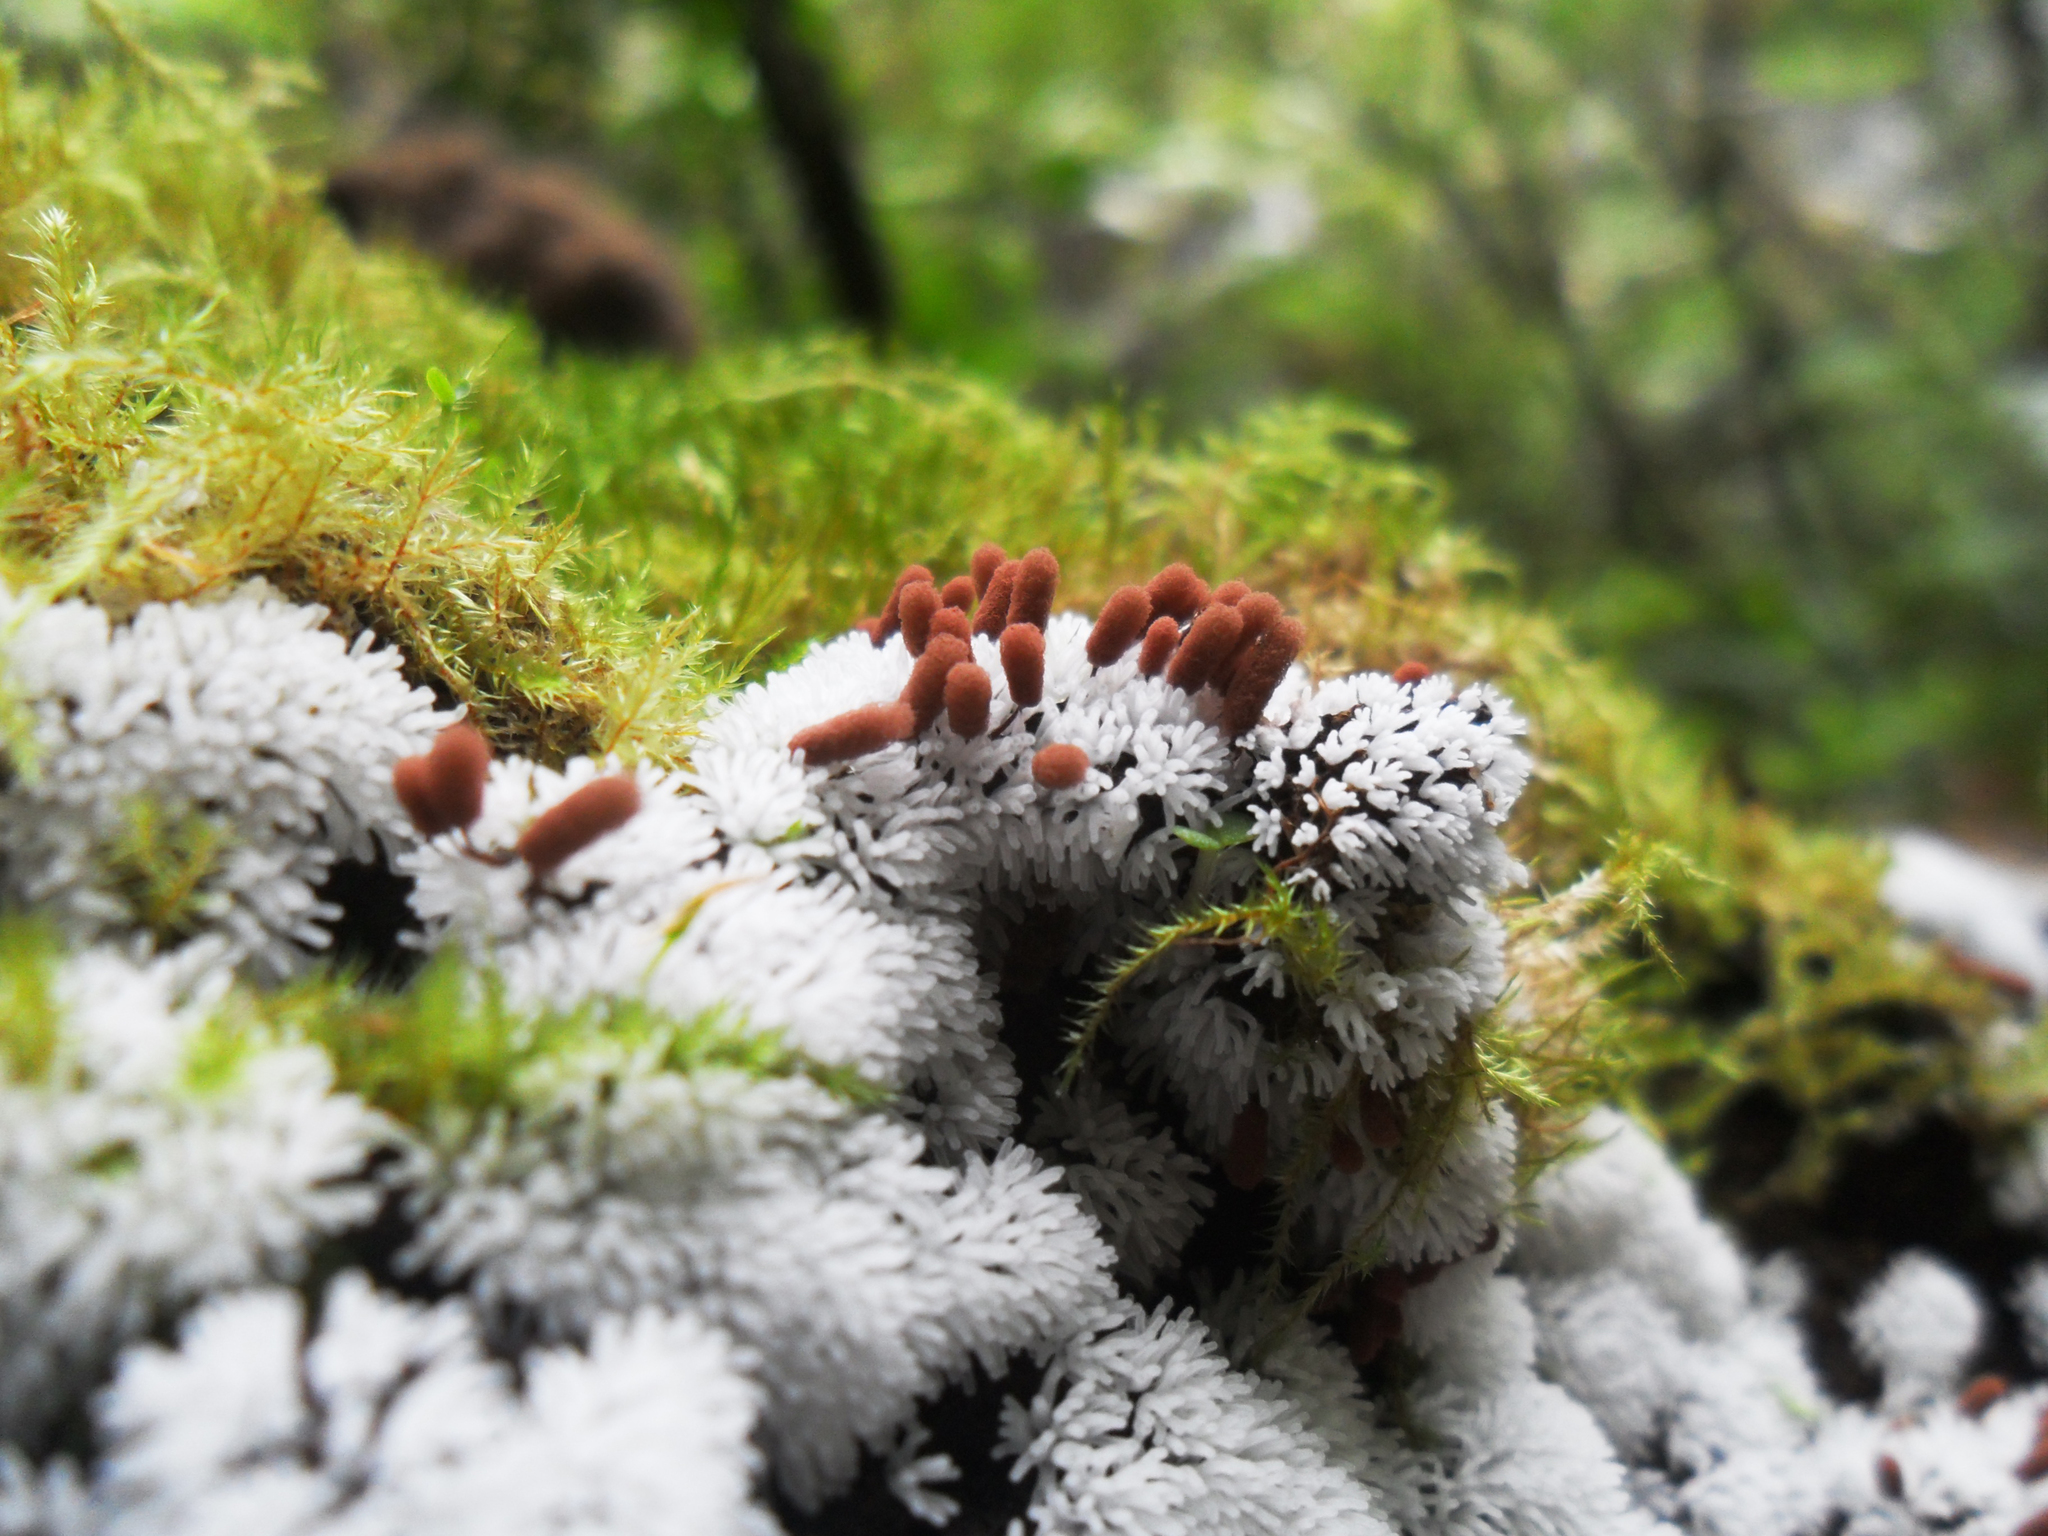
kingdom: Protozoa
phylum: Mycetozoa
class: Protosteliomycetes
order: Ceratiomyxales
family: Ceratiomyxaceae
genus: Ceratiomyxa
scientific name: Ceratiomyxa fruticulosa
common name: Honeycomb coral slime mold
